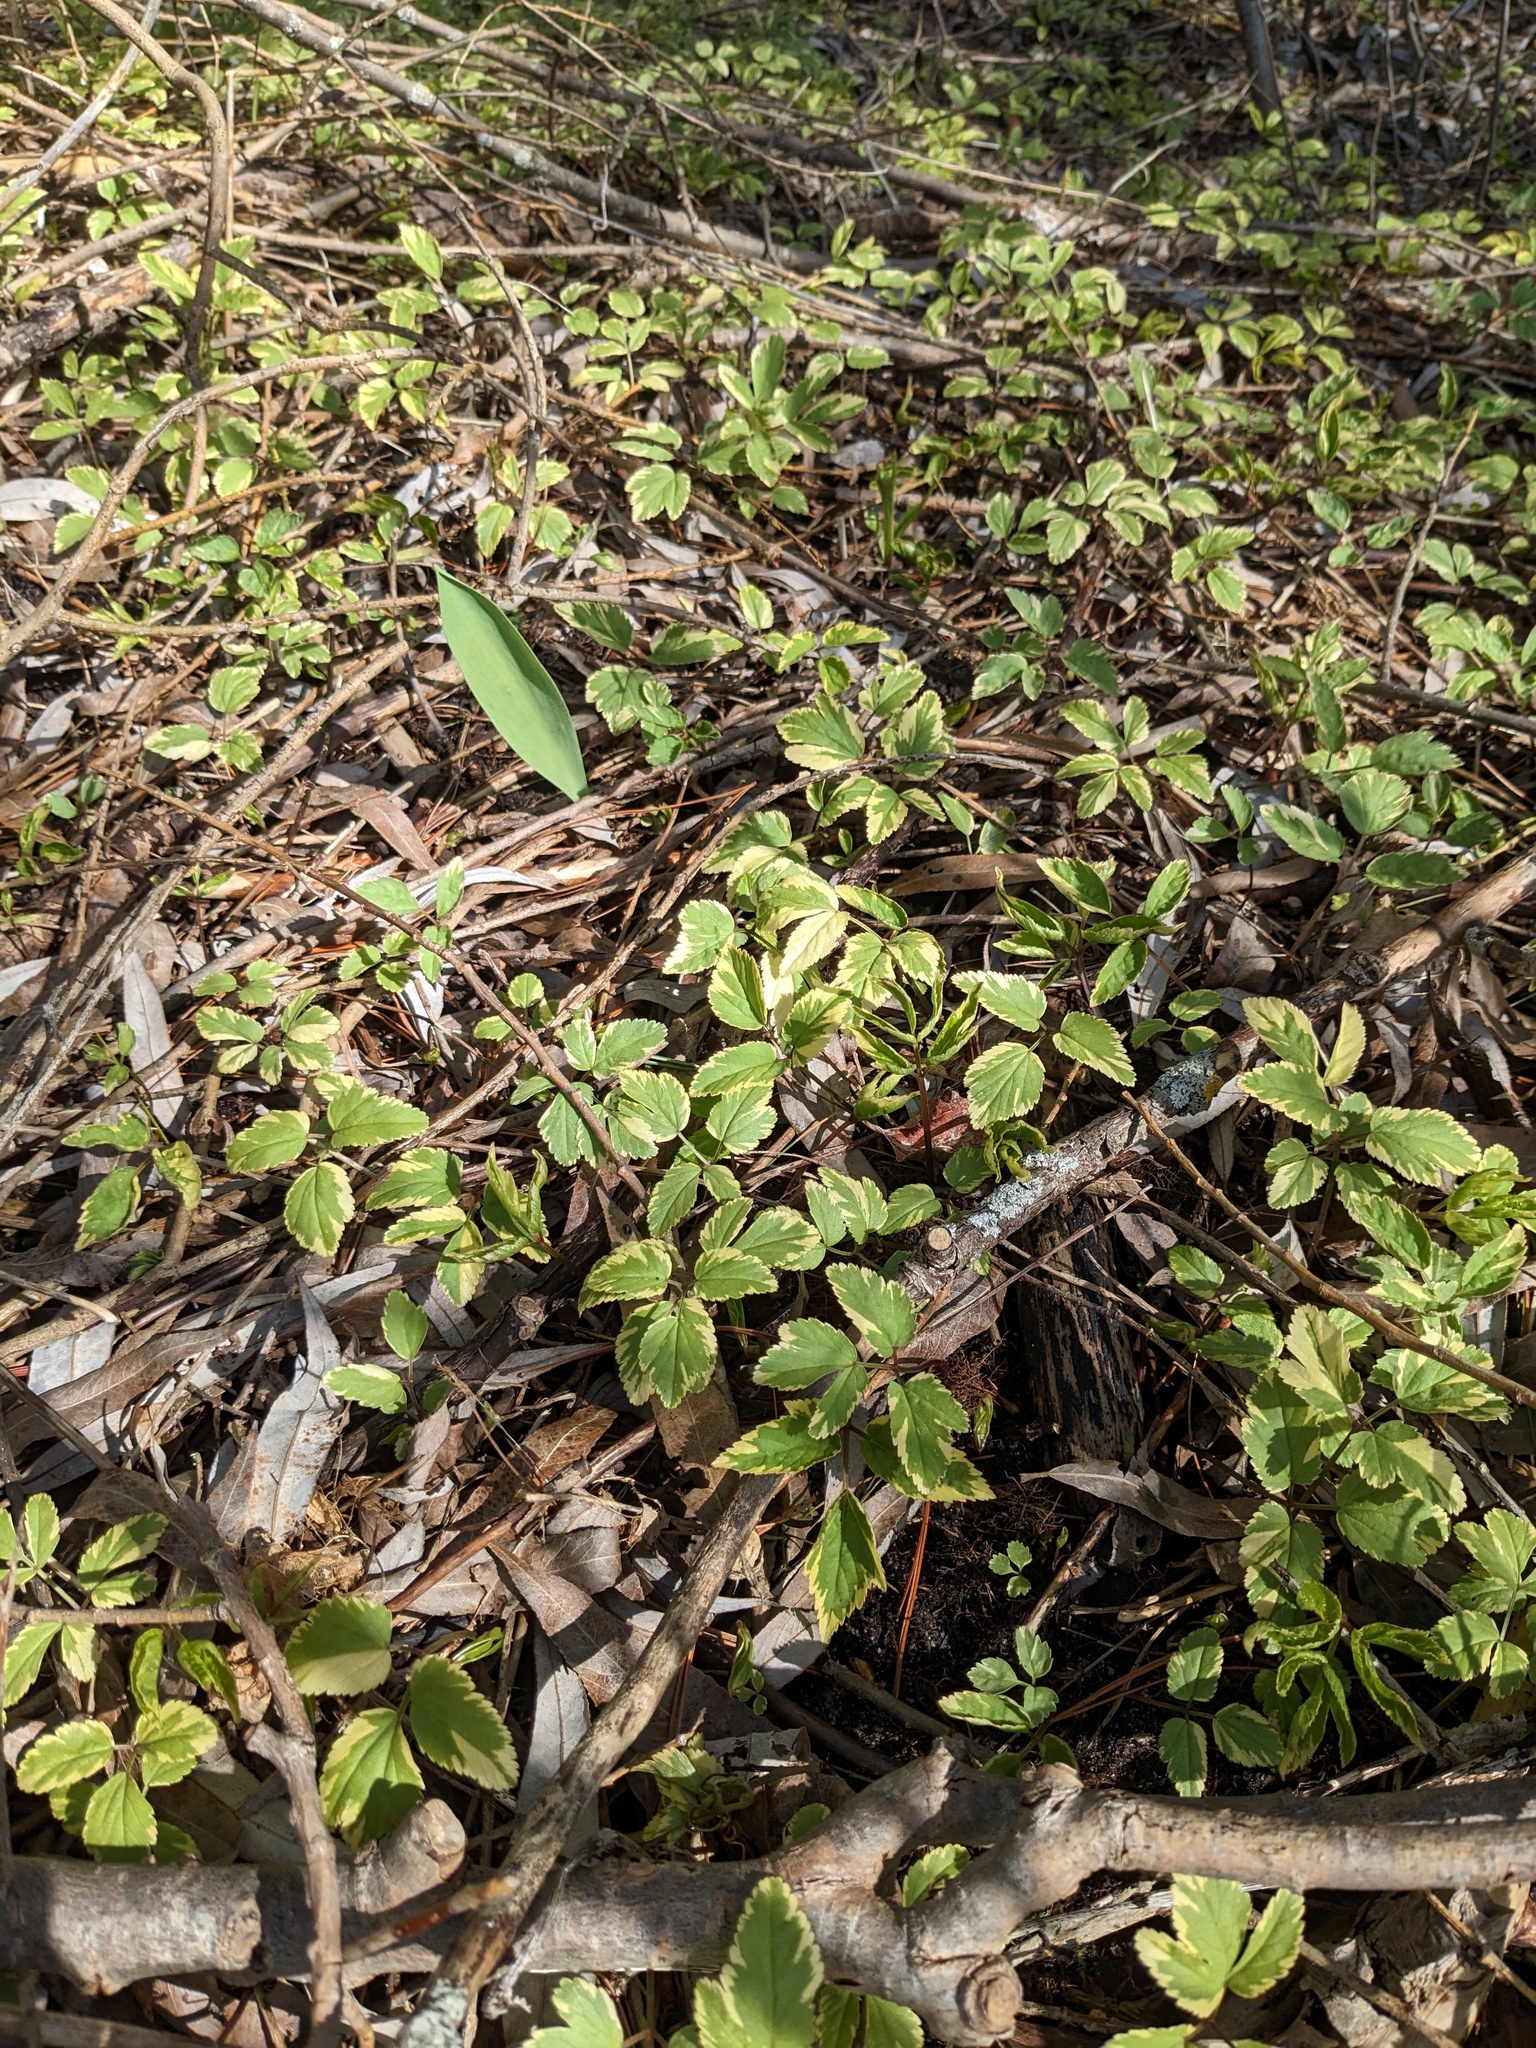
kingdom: Plantae
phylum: Tracheophyta
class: Magnoliopsida
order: Apiales
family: Apiaceae
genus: Aegopodium
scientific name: Aegopodium podagraria
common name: Ground-elder
